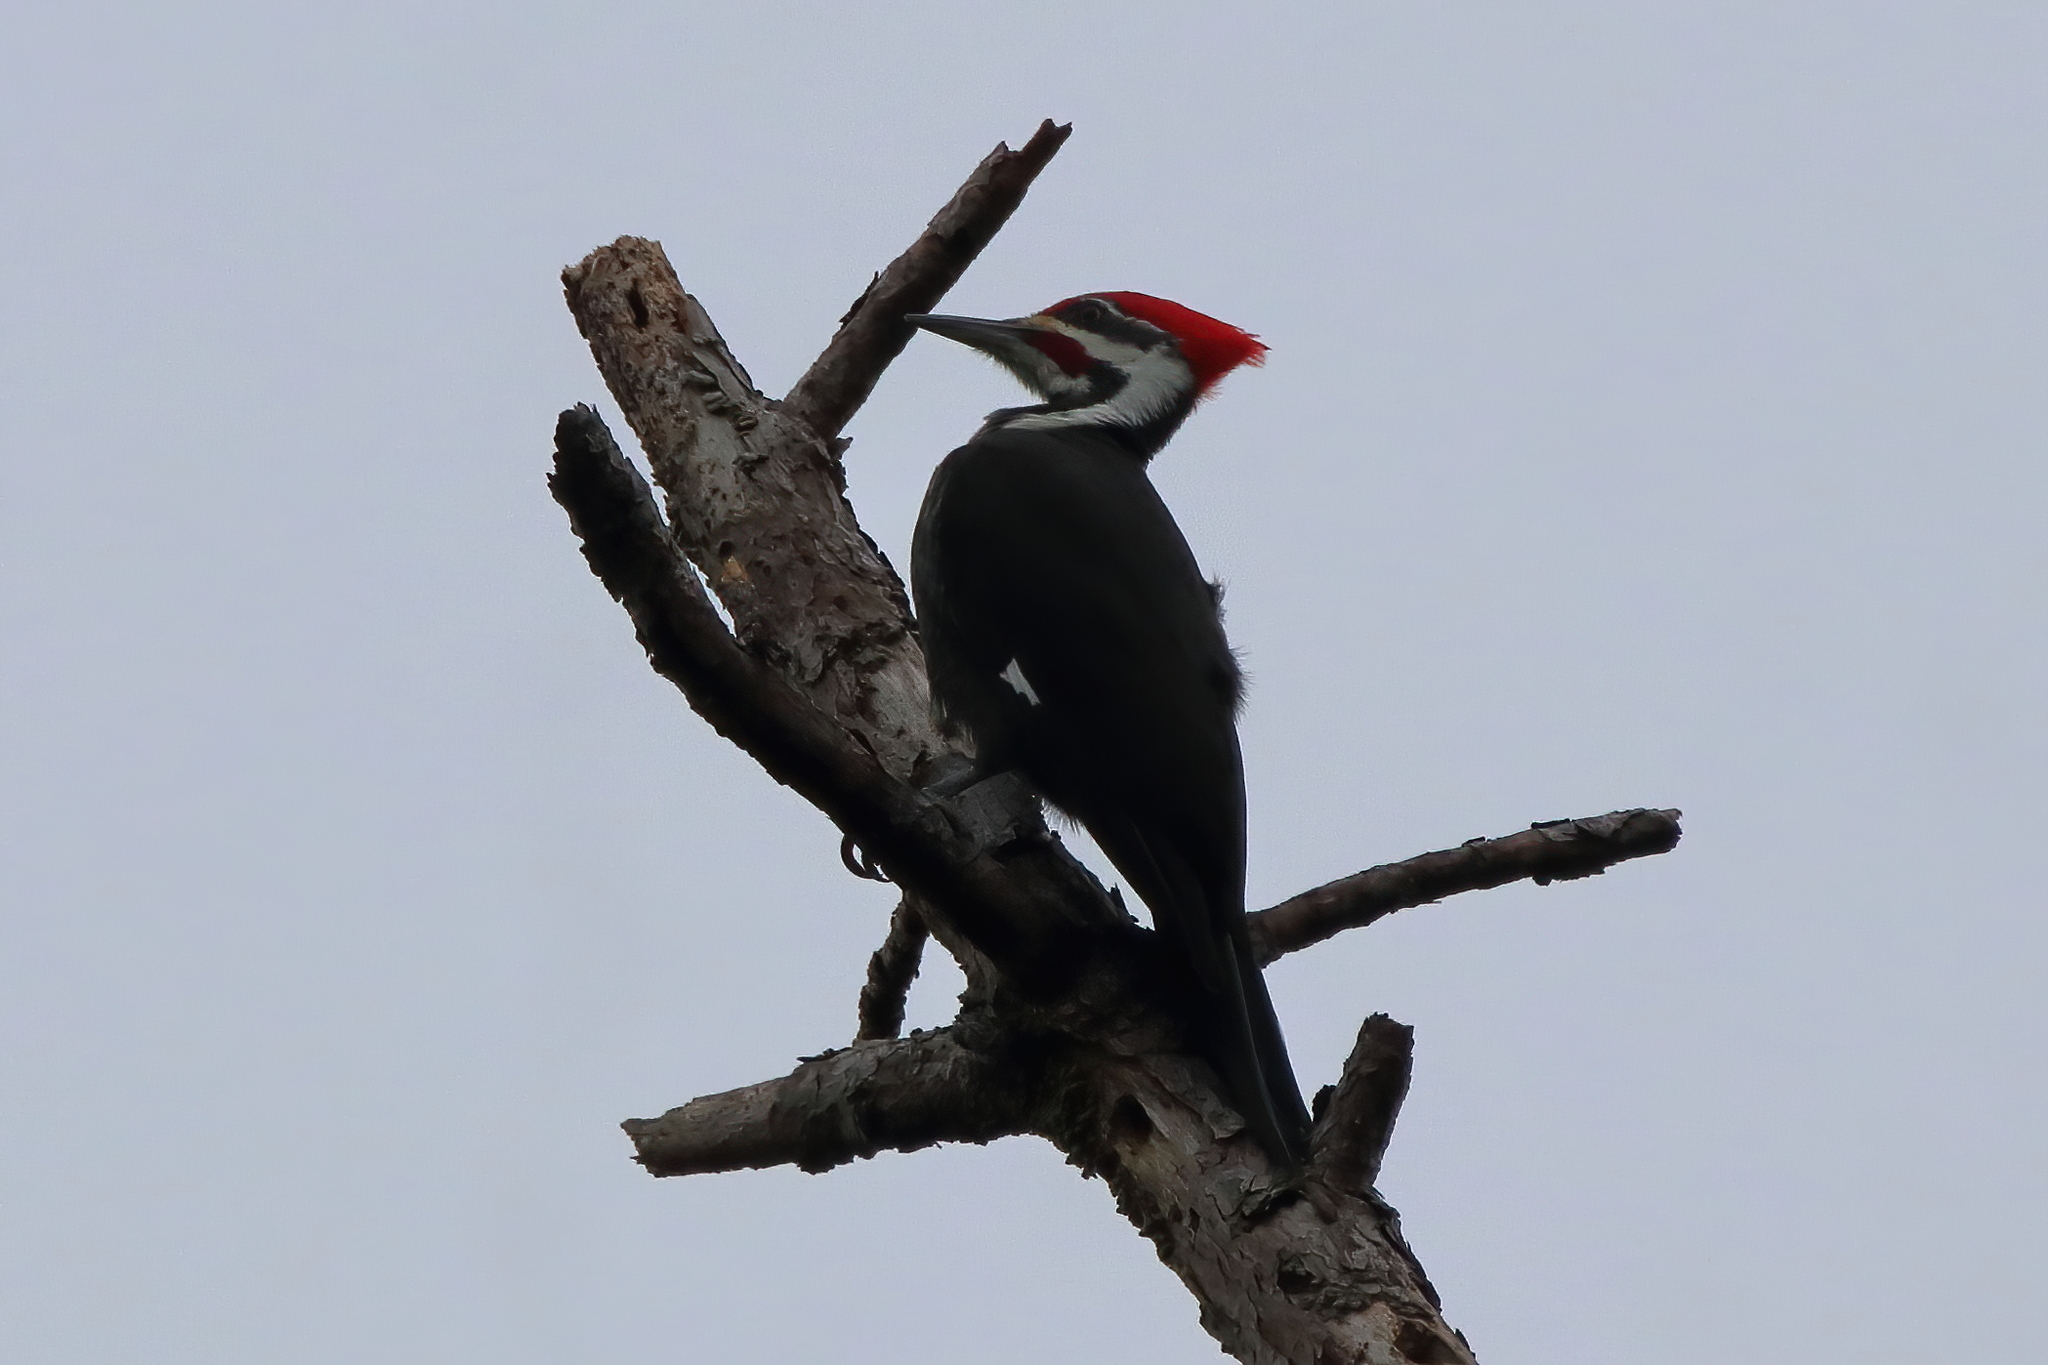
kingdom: Animalia
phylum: Chordata
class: Aves
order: Piciformes
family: Picidae
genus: Dryocopus
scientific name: Dryocopus pileatus
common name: Pileated woodpecker
